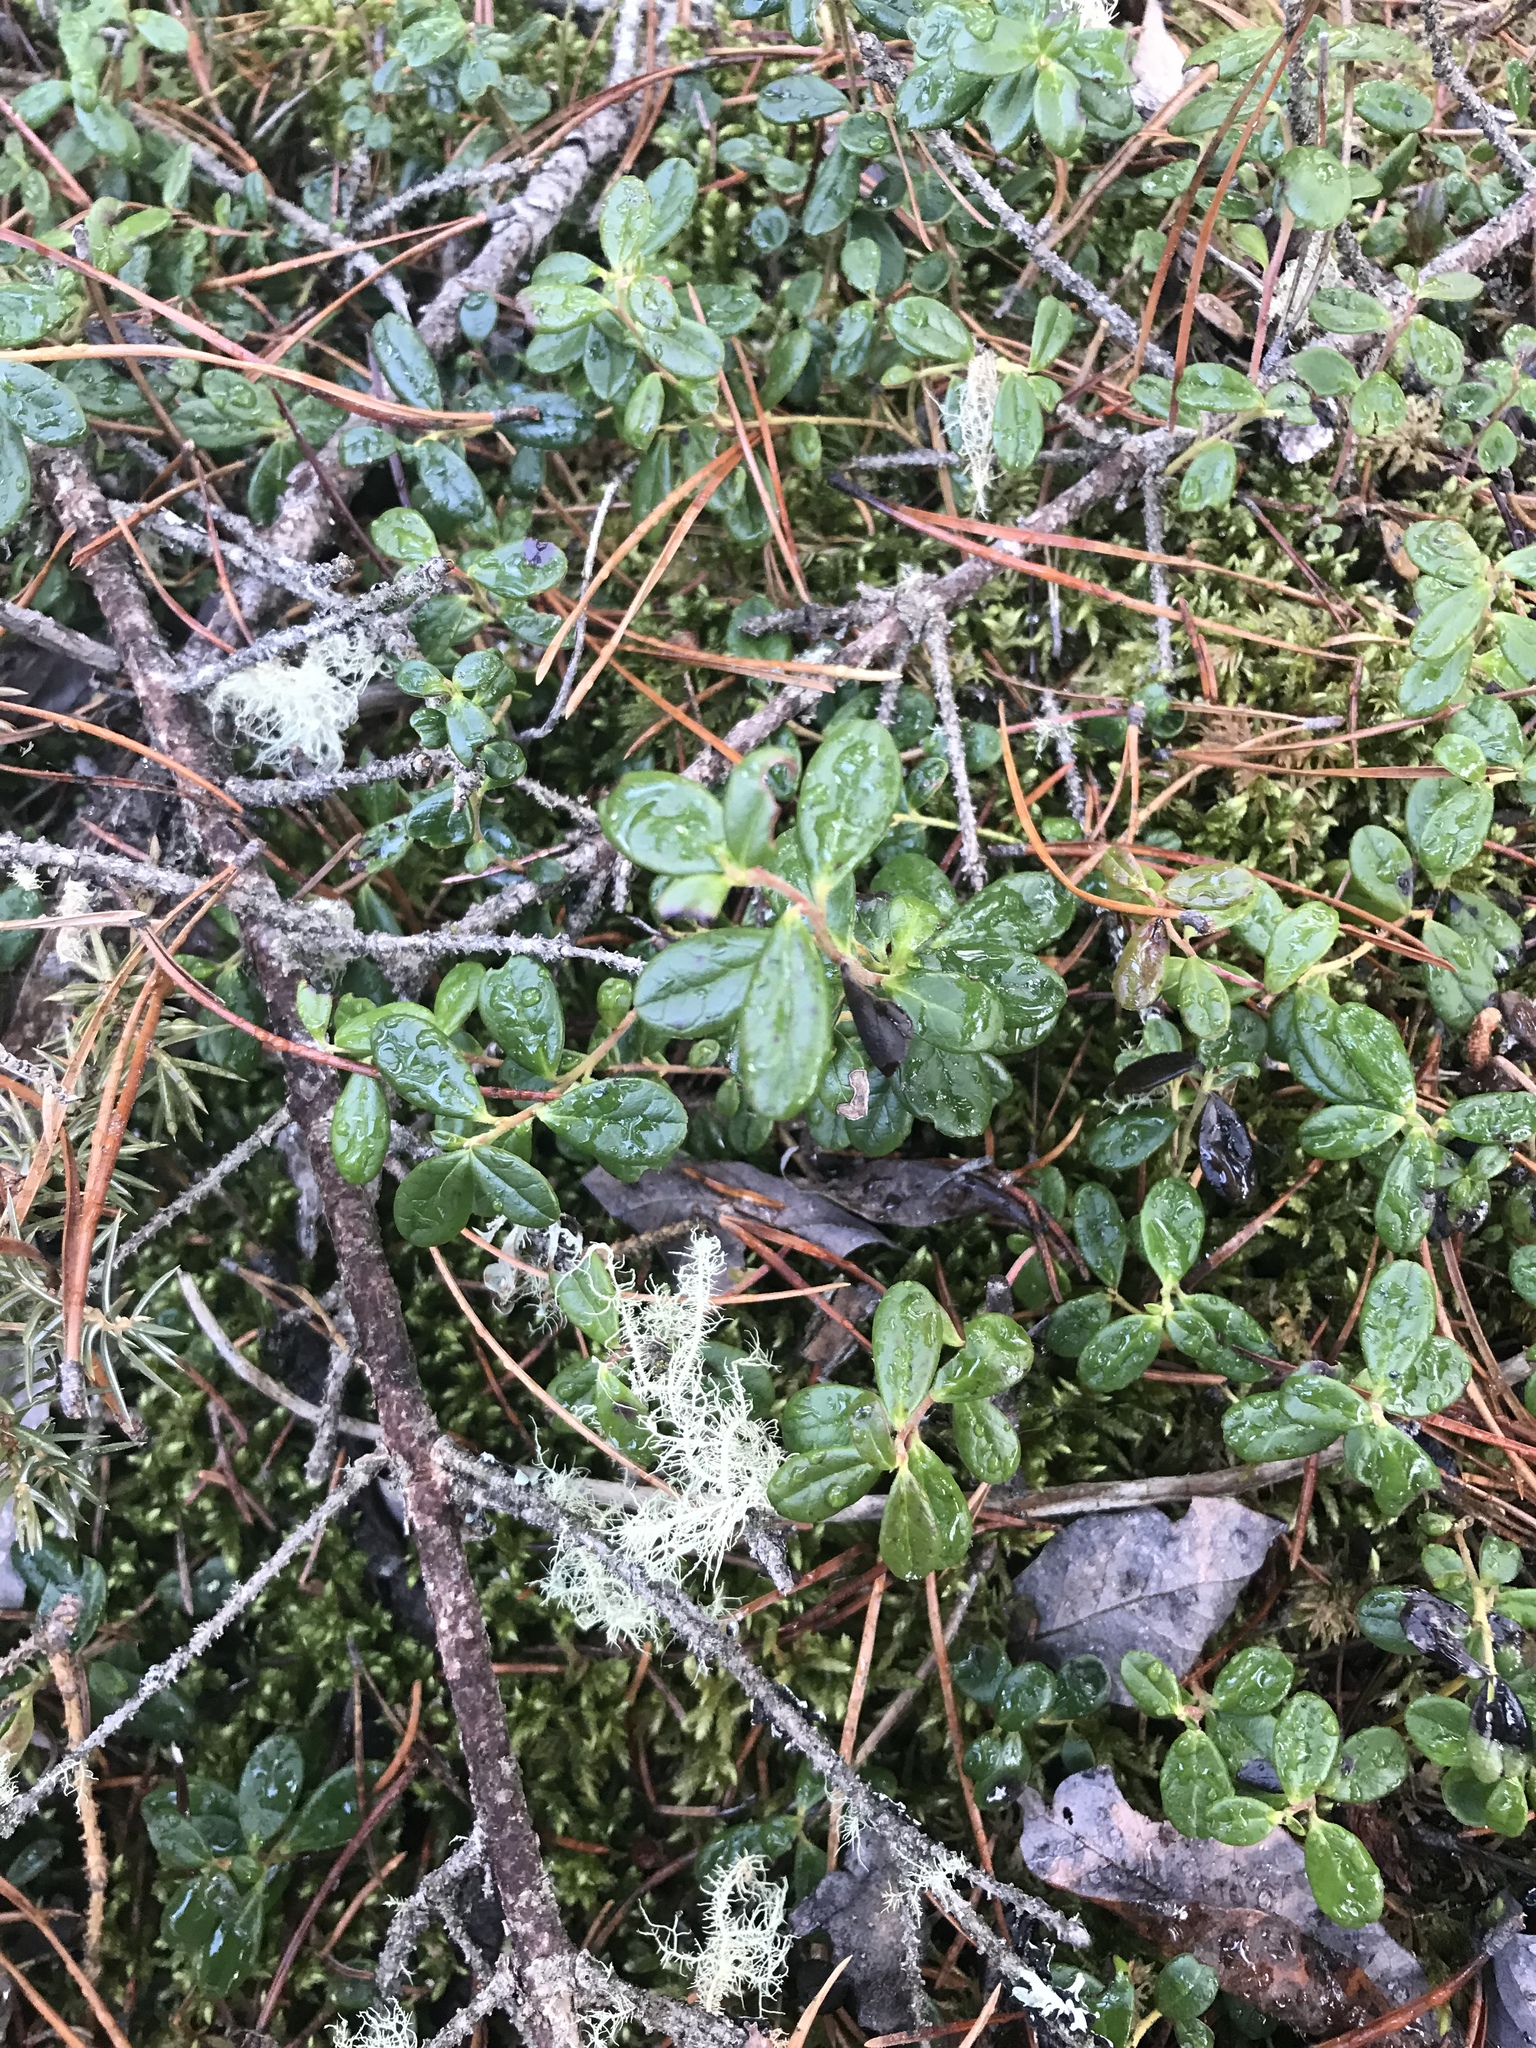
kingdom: Plantae
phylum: Tracheophyta
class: Magnoliopsida
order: Ericales
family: Ericaceae
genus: Vaccinium
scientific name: Vaccinium vitis-idaea
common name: Cowberry
